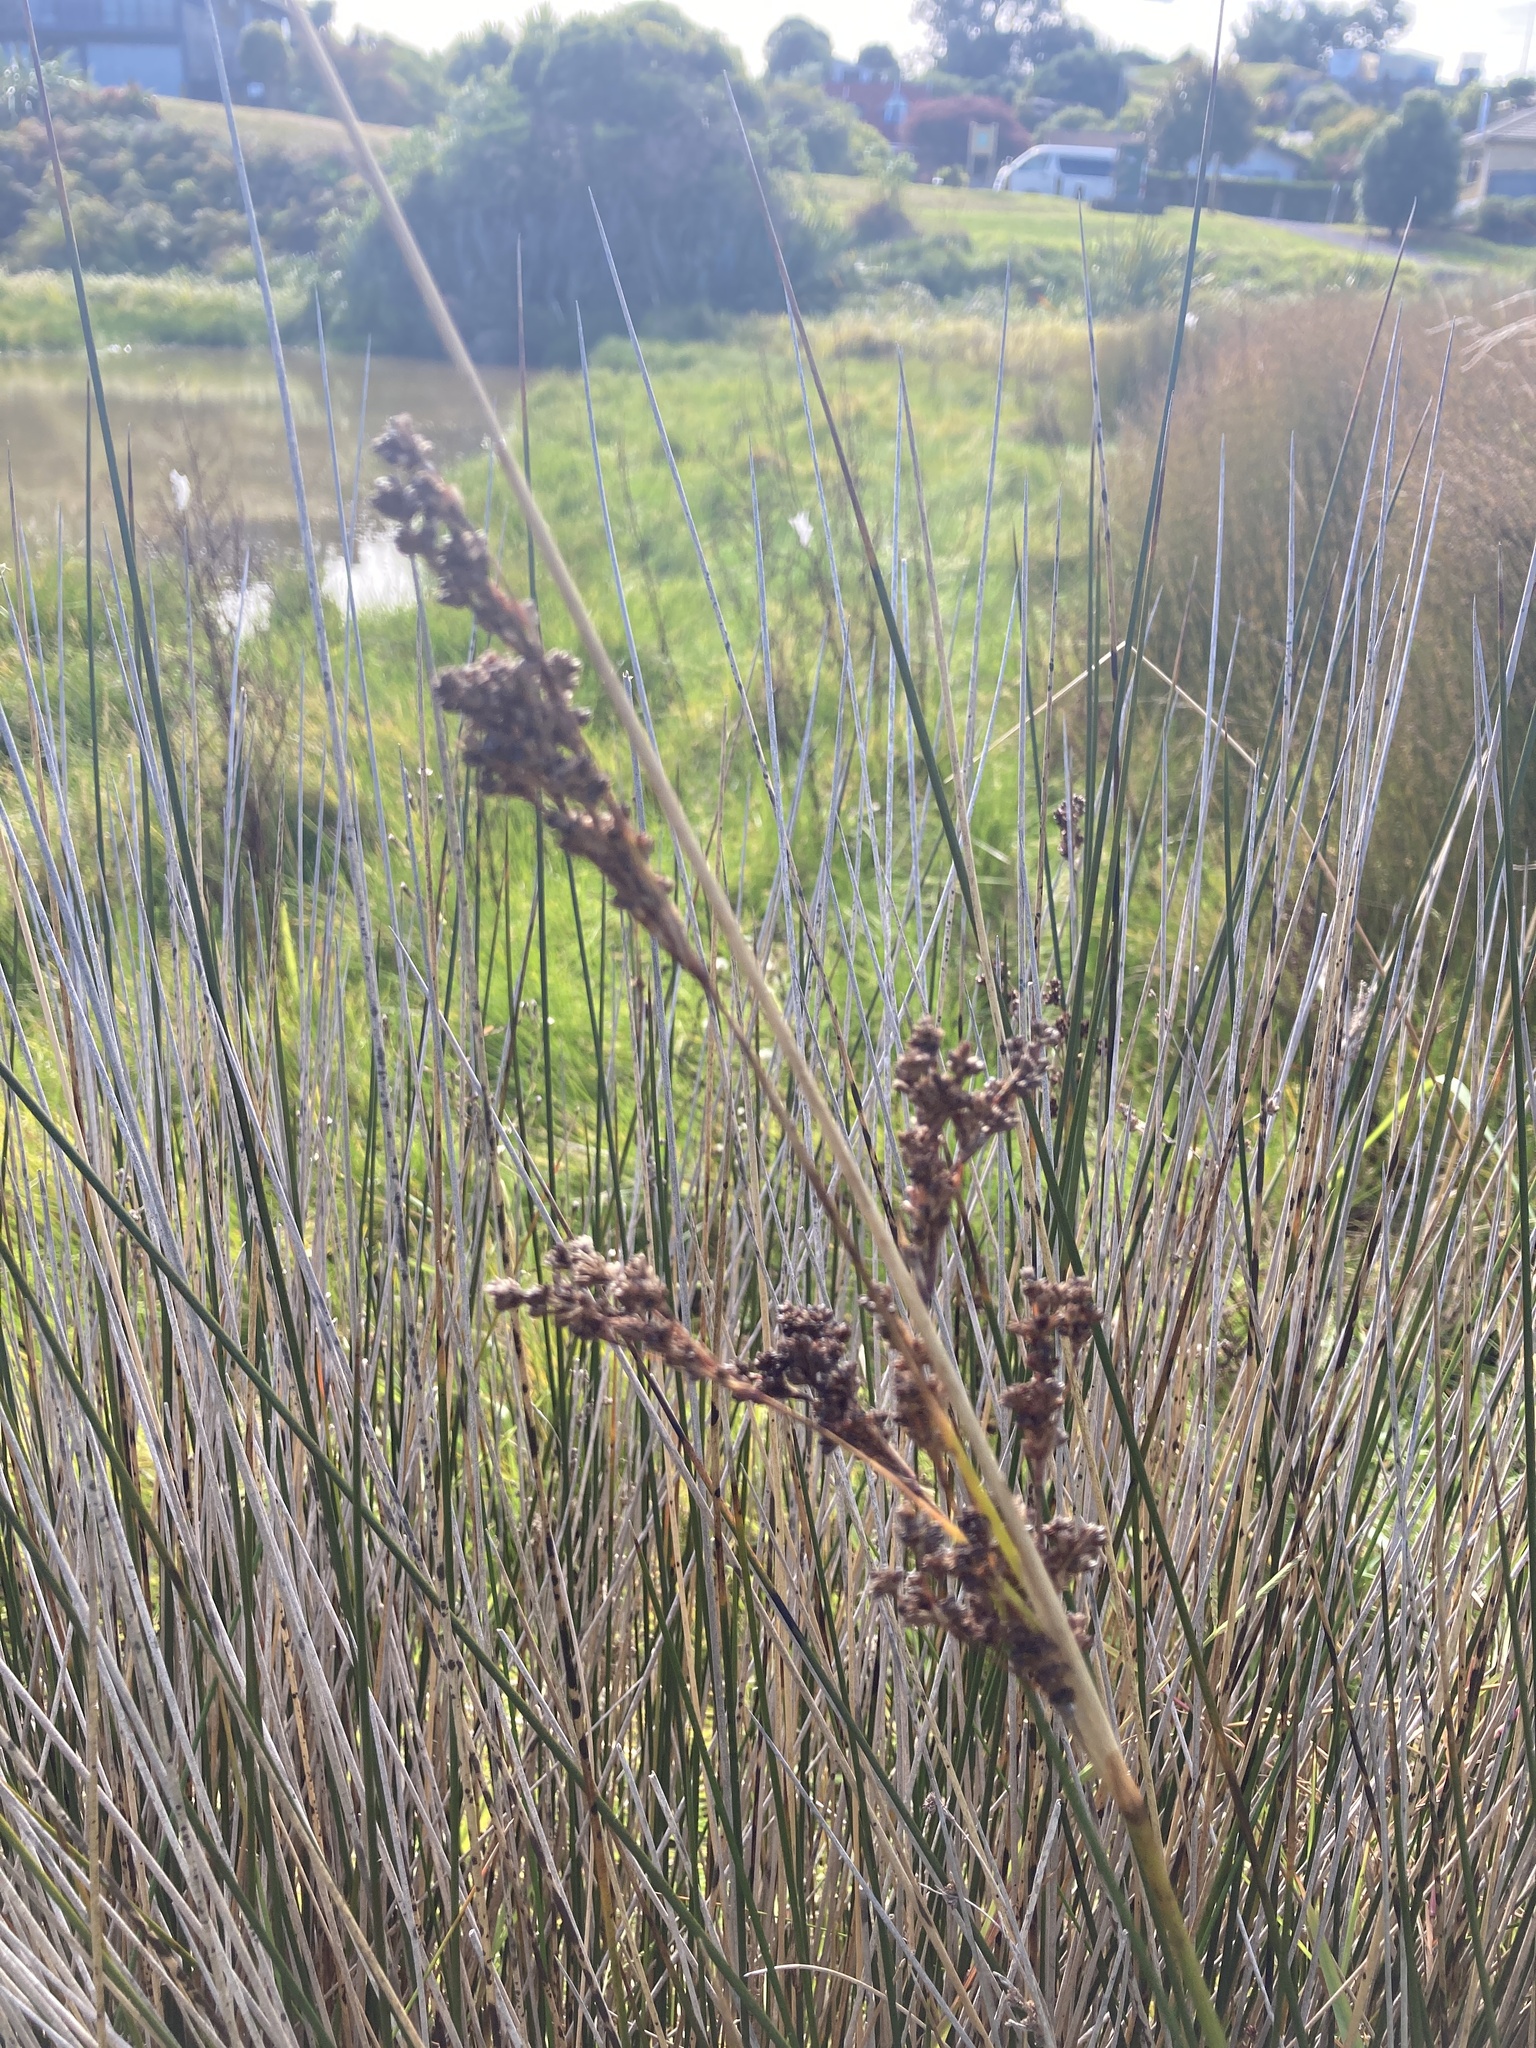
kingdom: Plantae
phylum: Tracheophyta
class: Liliopsida
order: Poales
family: Juncaceae
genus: Juncus
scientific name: Juncus kraussii
